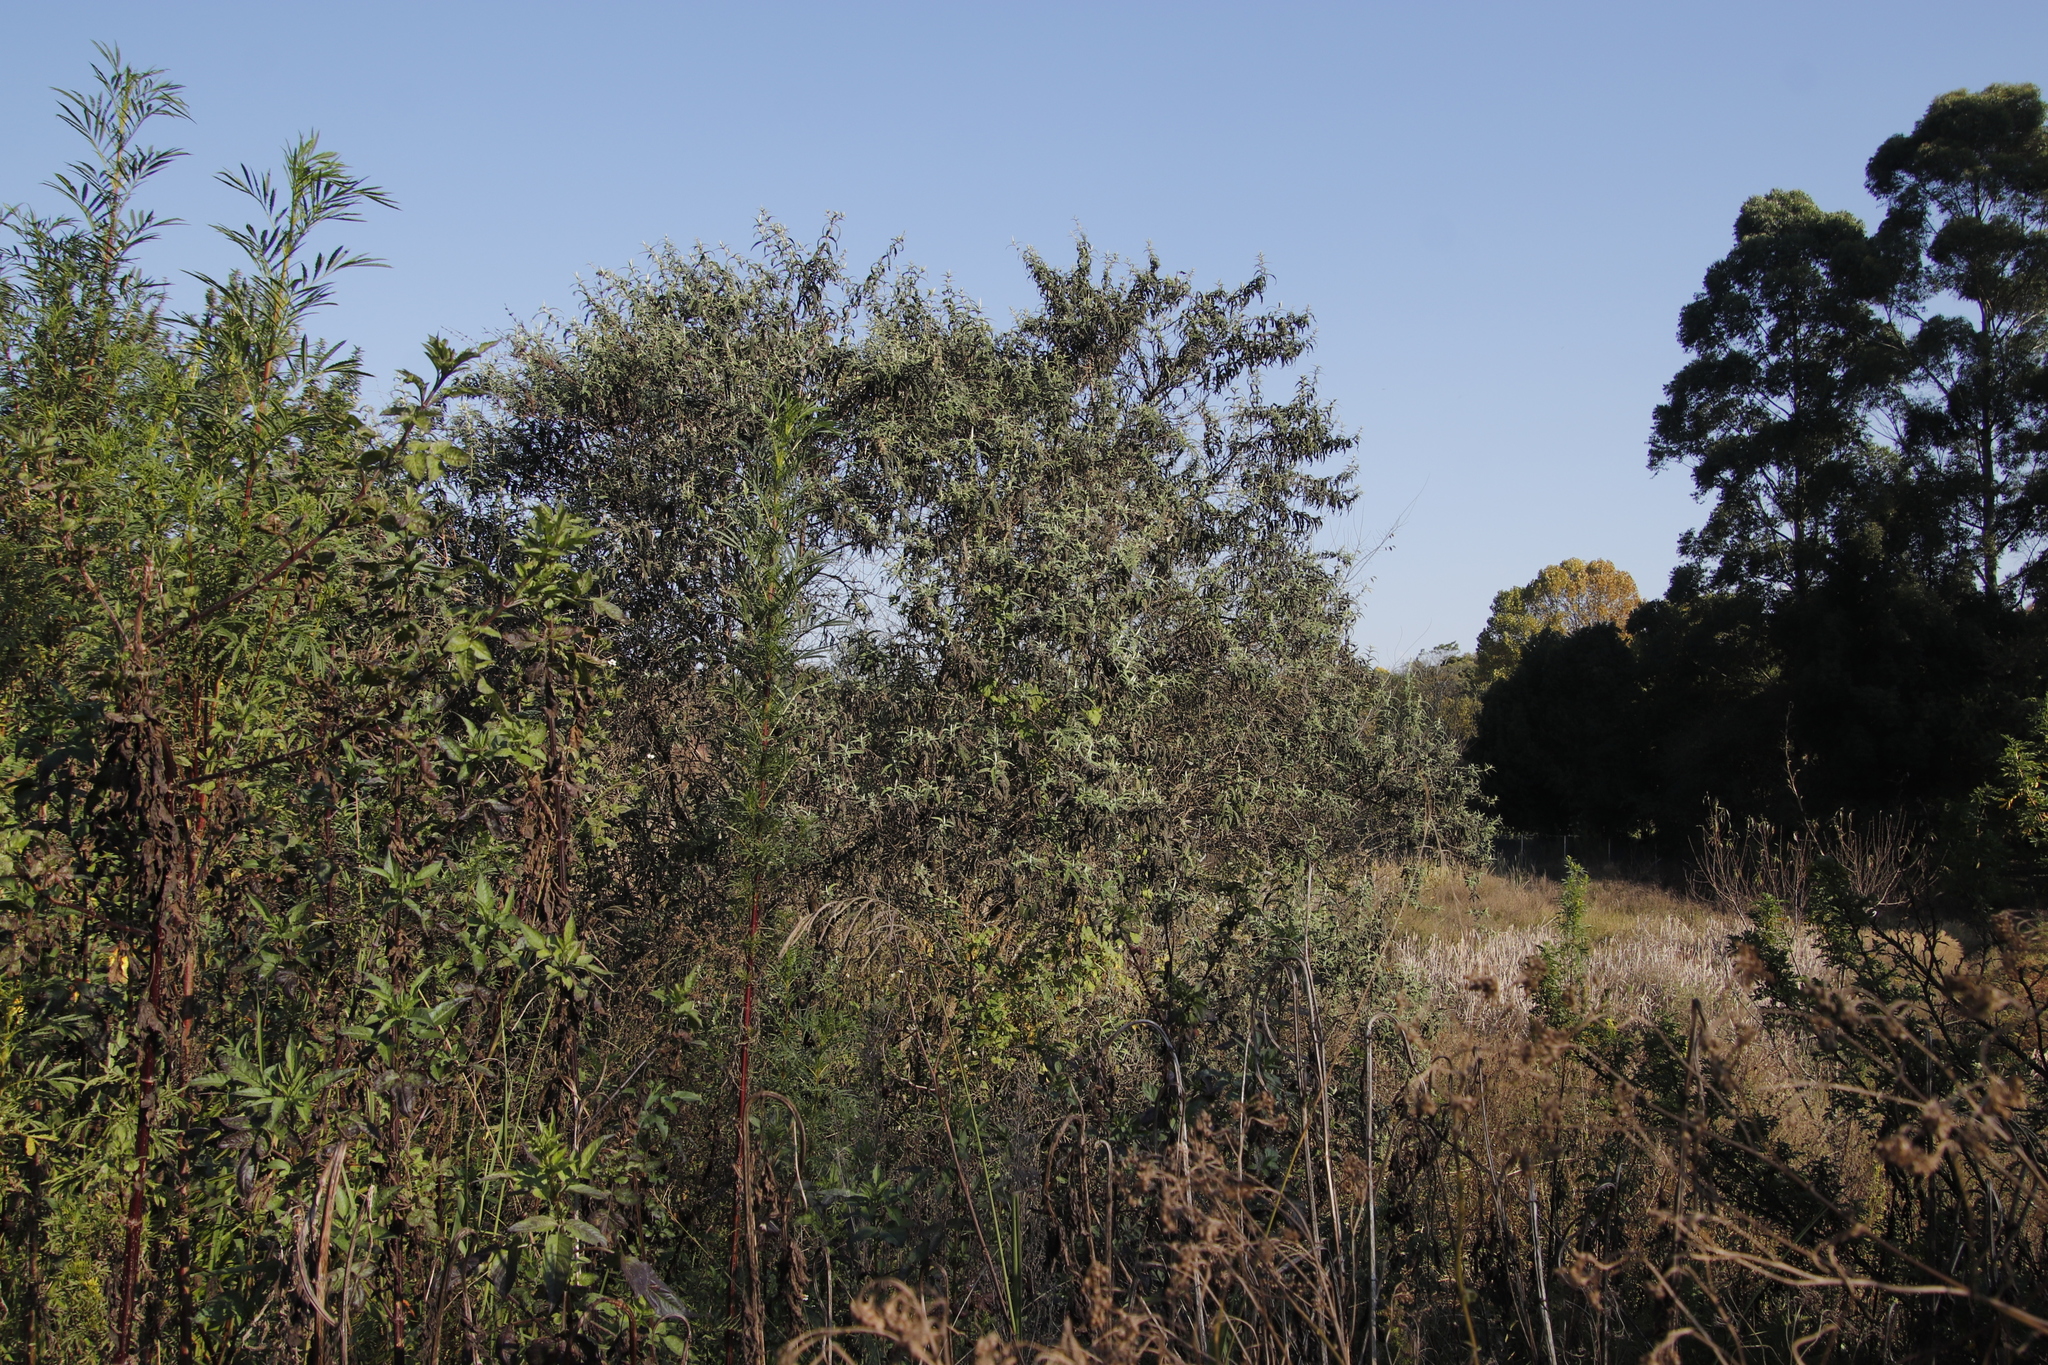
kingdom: Plantae
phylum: Tracheophyta
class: Magnoliopsida
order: Lamiales
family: Scrophulariaceae
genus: Buddleja
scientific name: Buddleja salviifolia
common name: Sagewood
